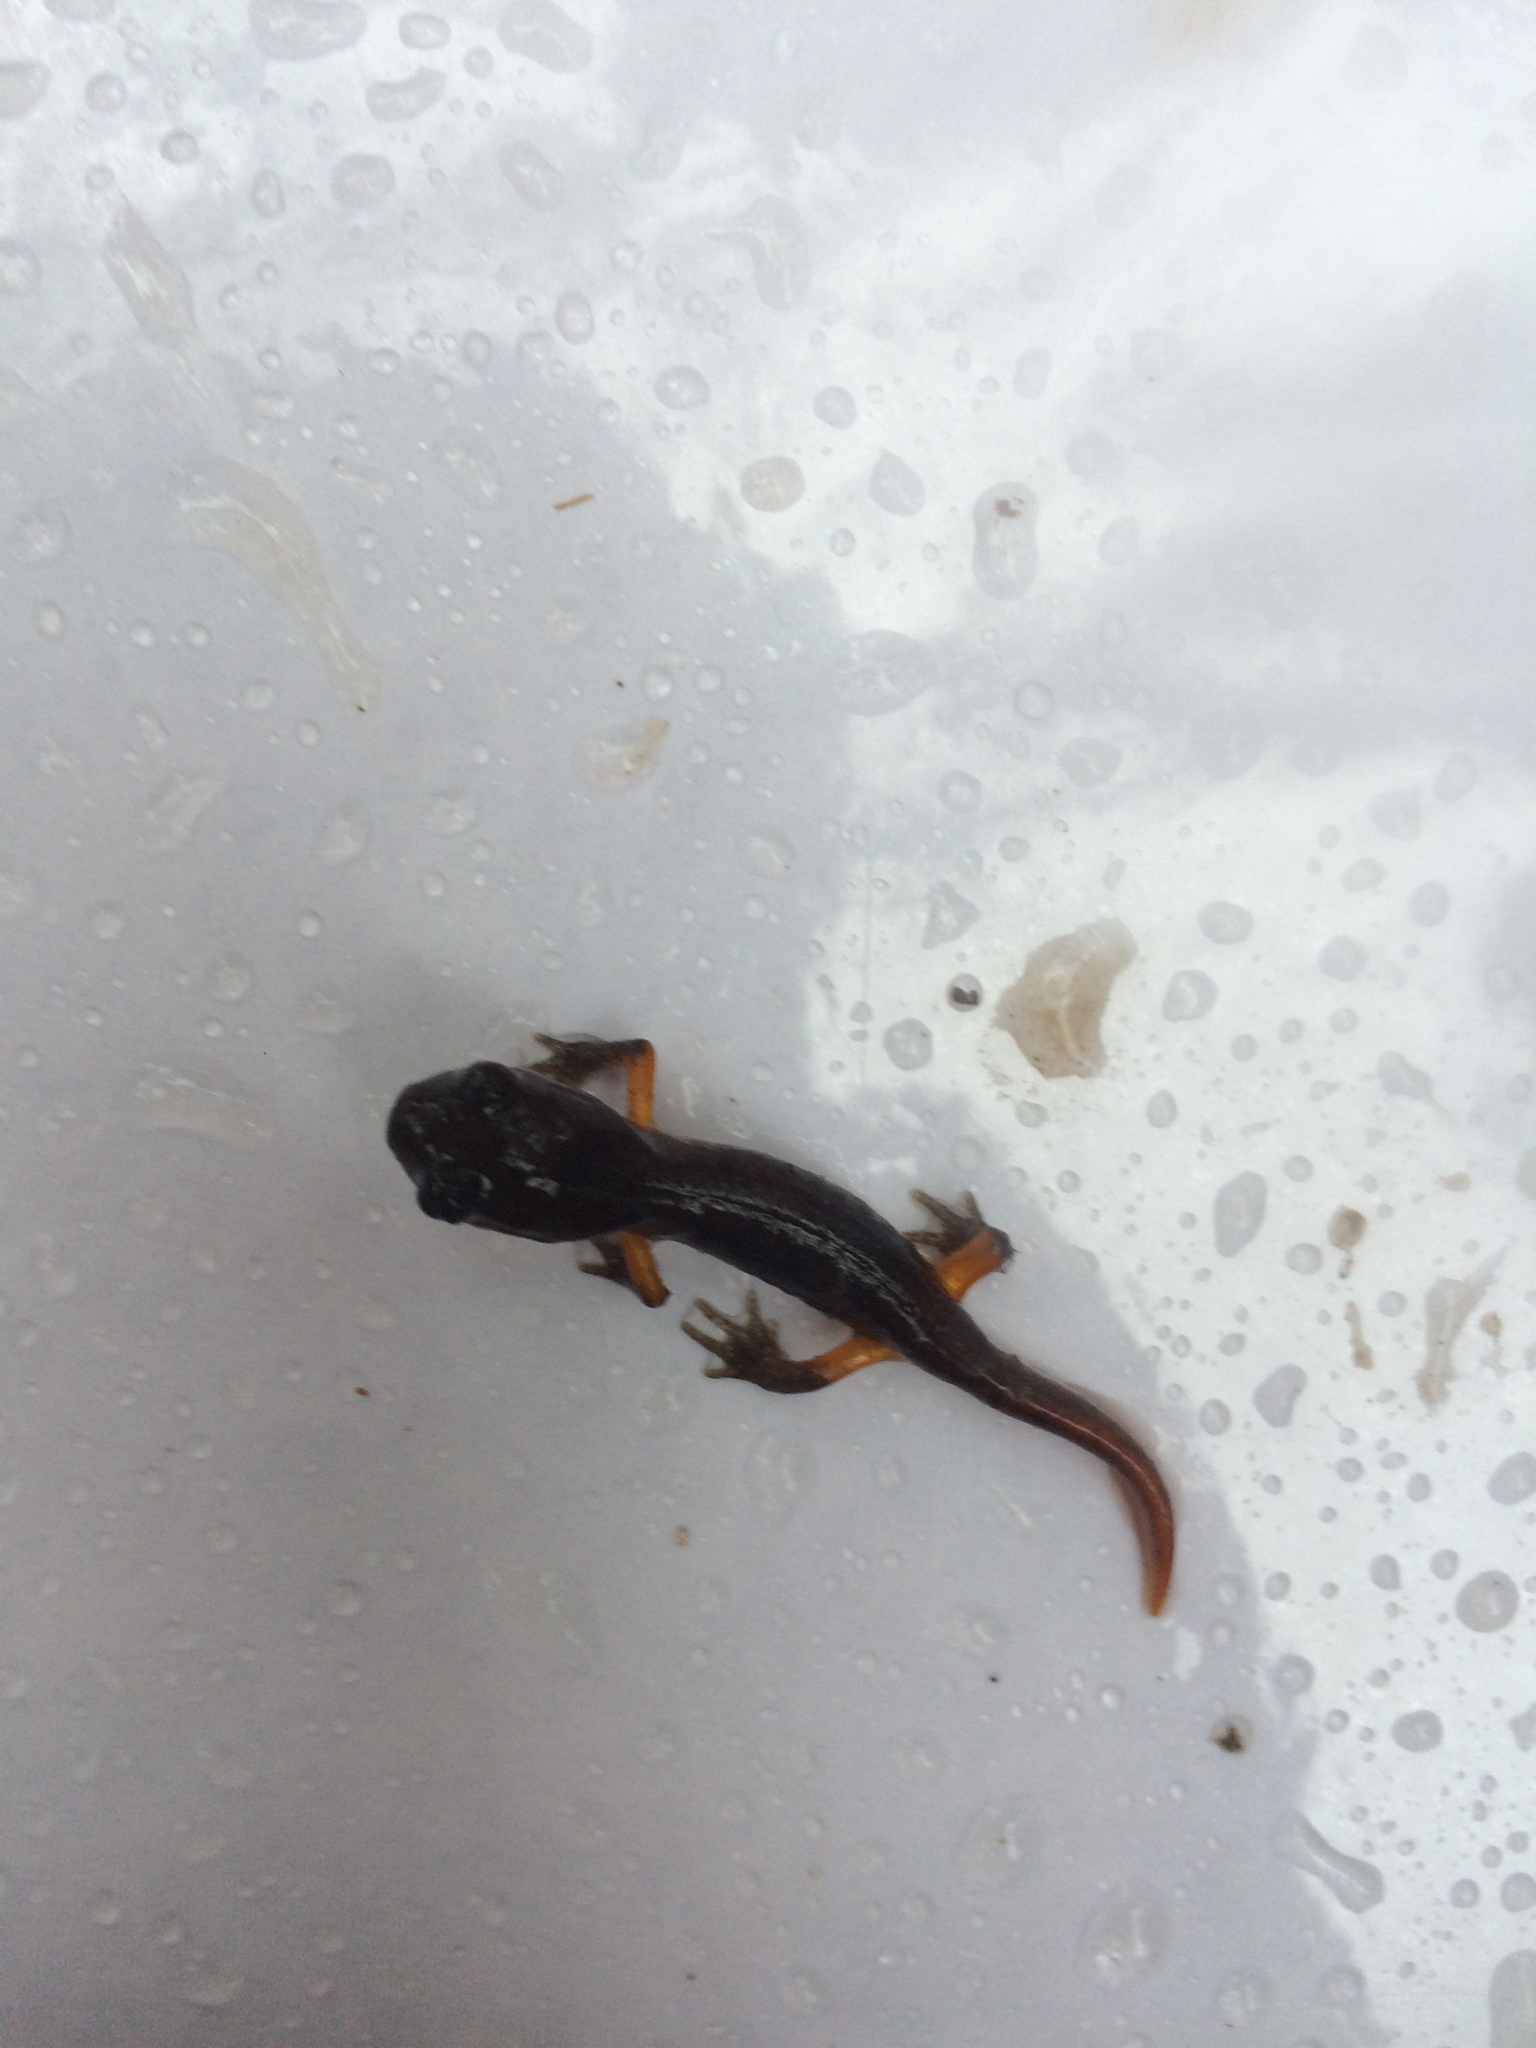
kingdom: Animalia
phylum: Chordata
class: Amphibia
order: Caudata
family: Plethodontidae
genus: Ensatina
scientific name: Ensatina eschscholtzii
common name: Ensatina
